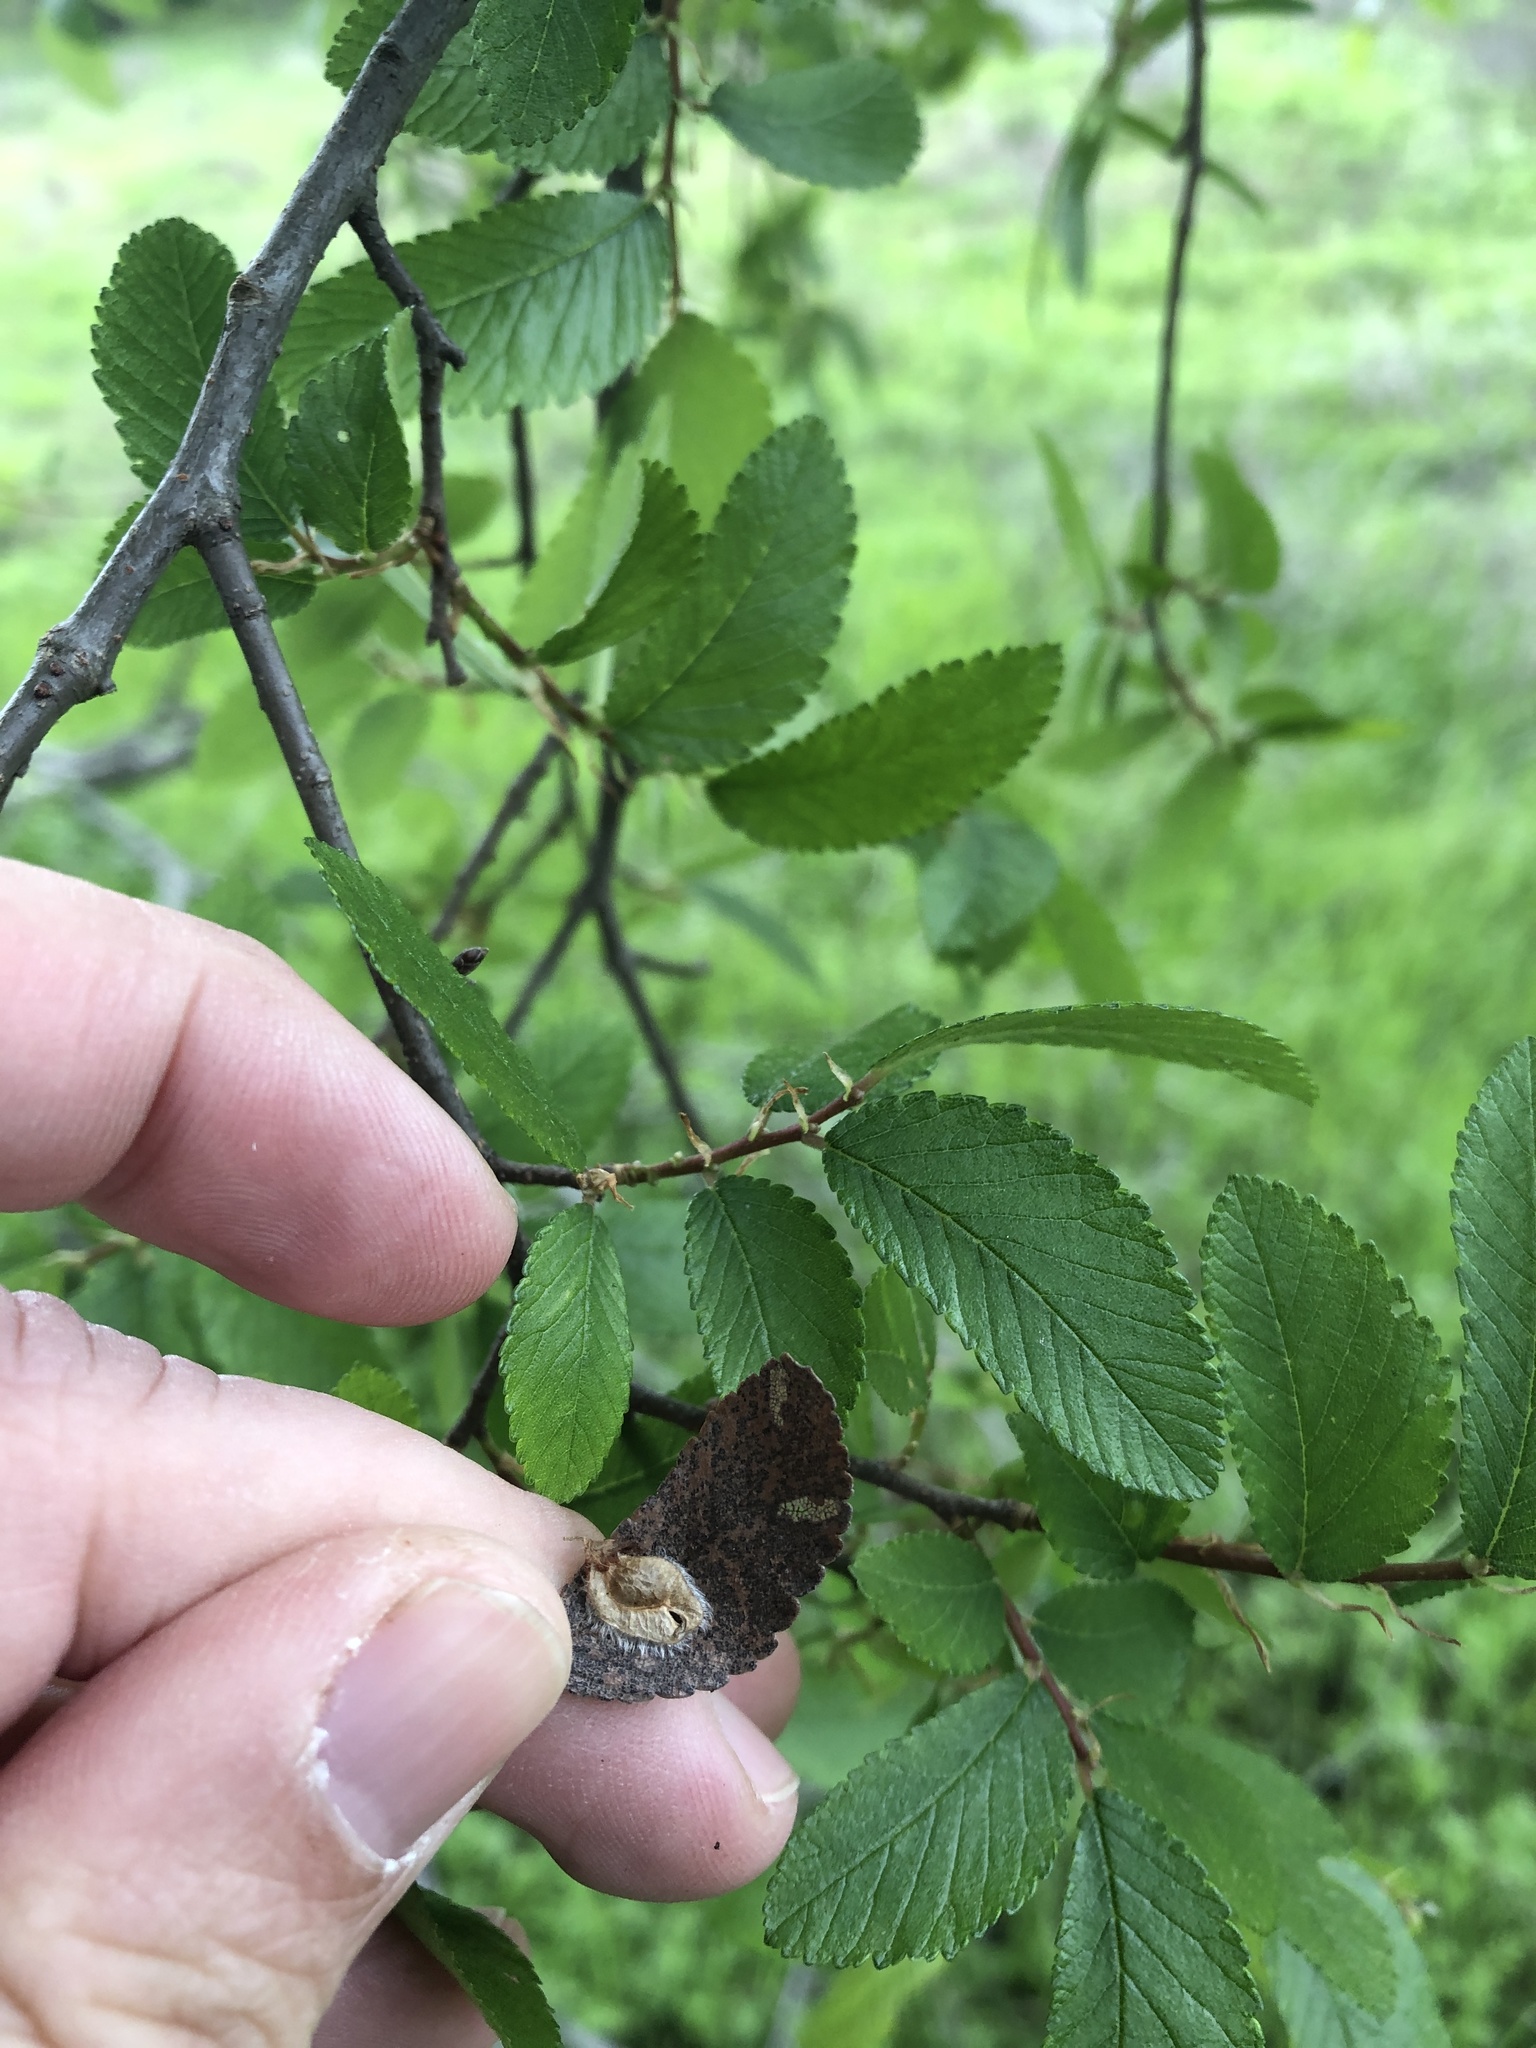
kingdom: Plantae
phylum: Tracheophyta
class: Magnoliopsida
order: Rosales
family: Ulmaceae
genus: Ulmus
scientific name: Ulmus crassifolia
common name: Basket elm
